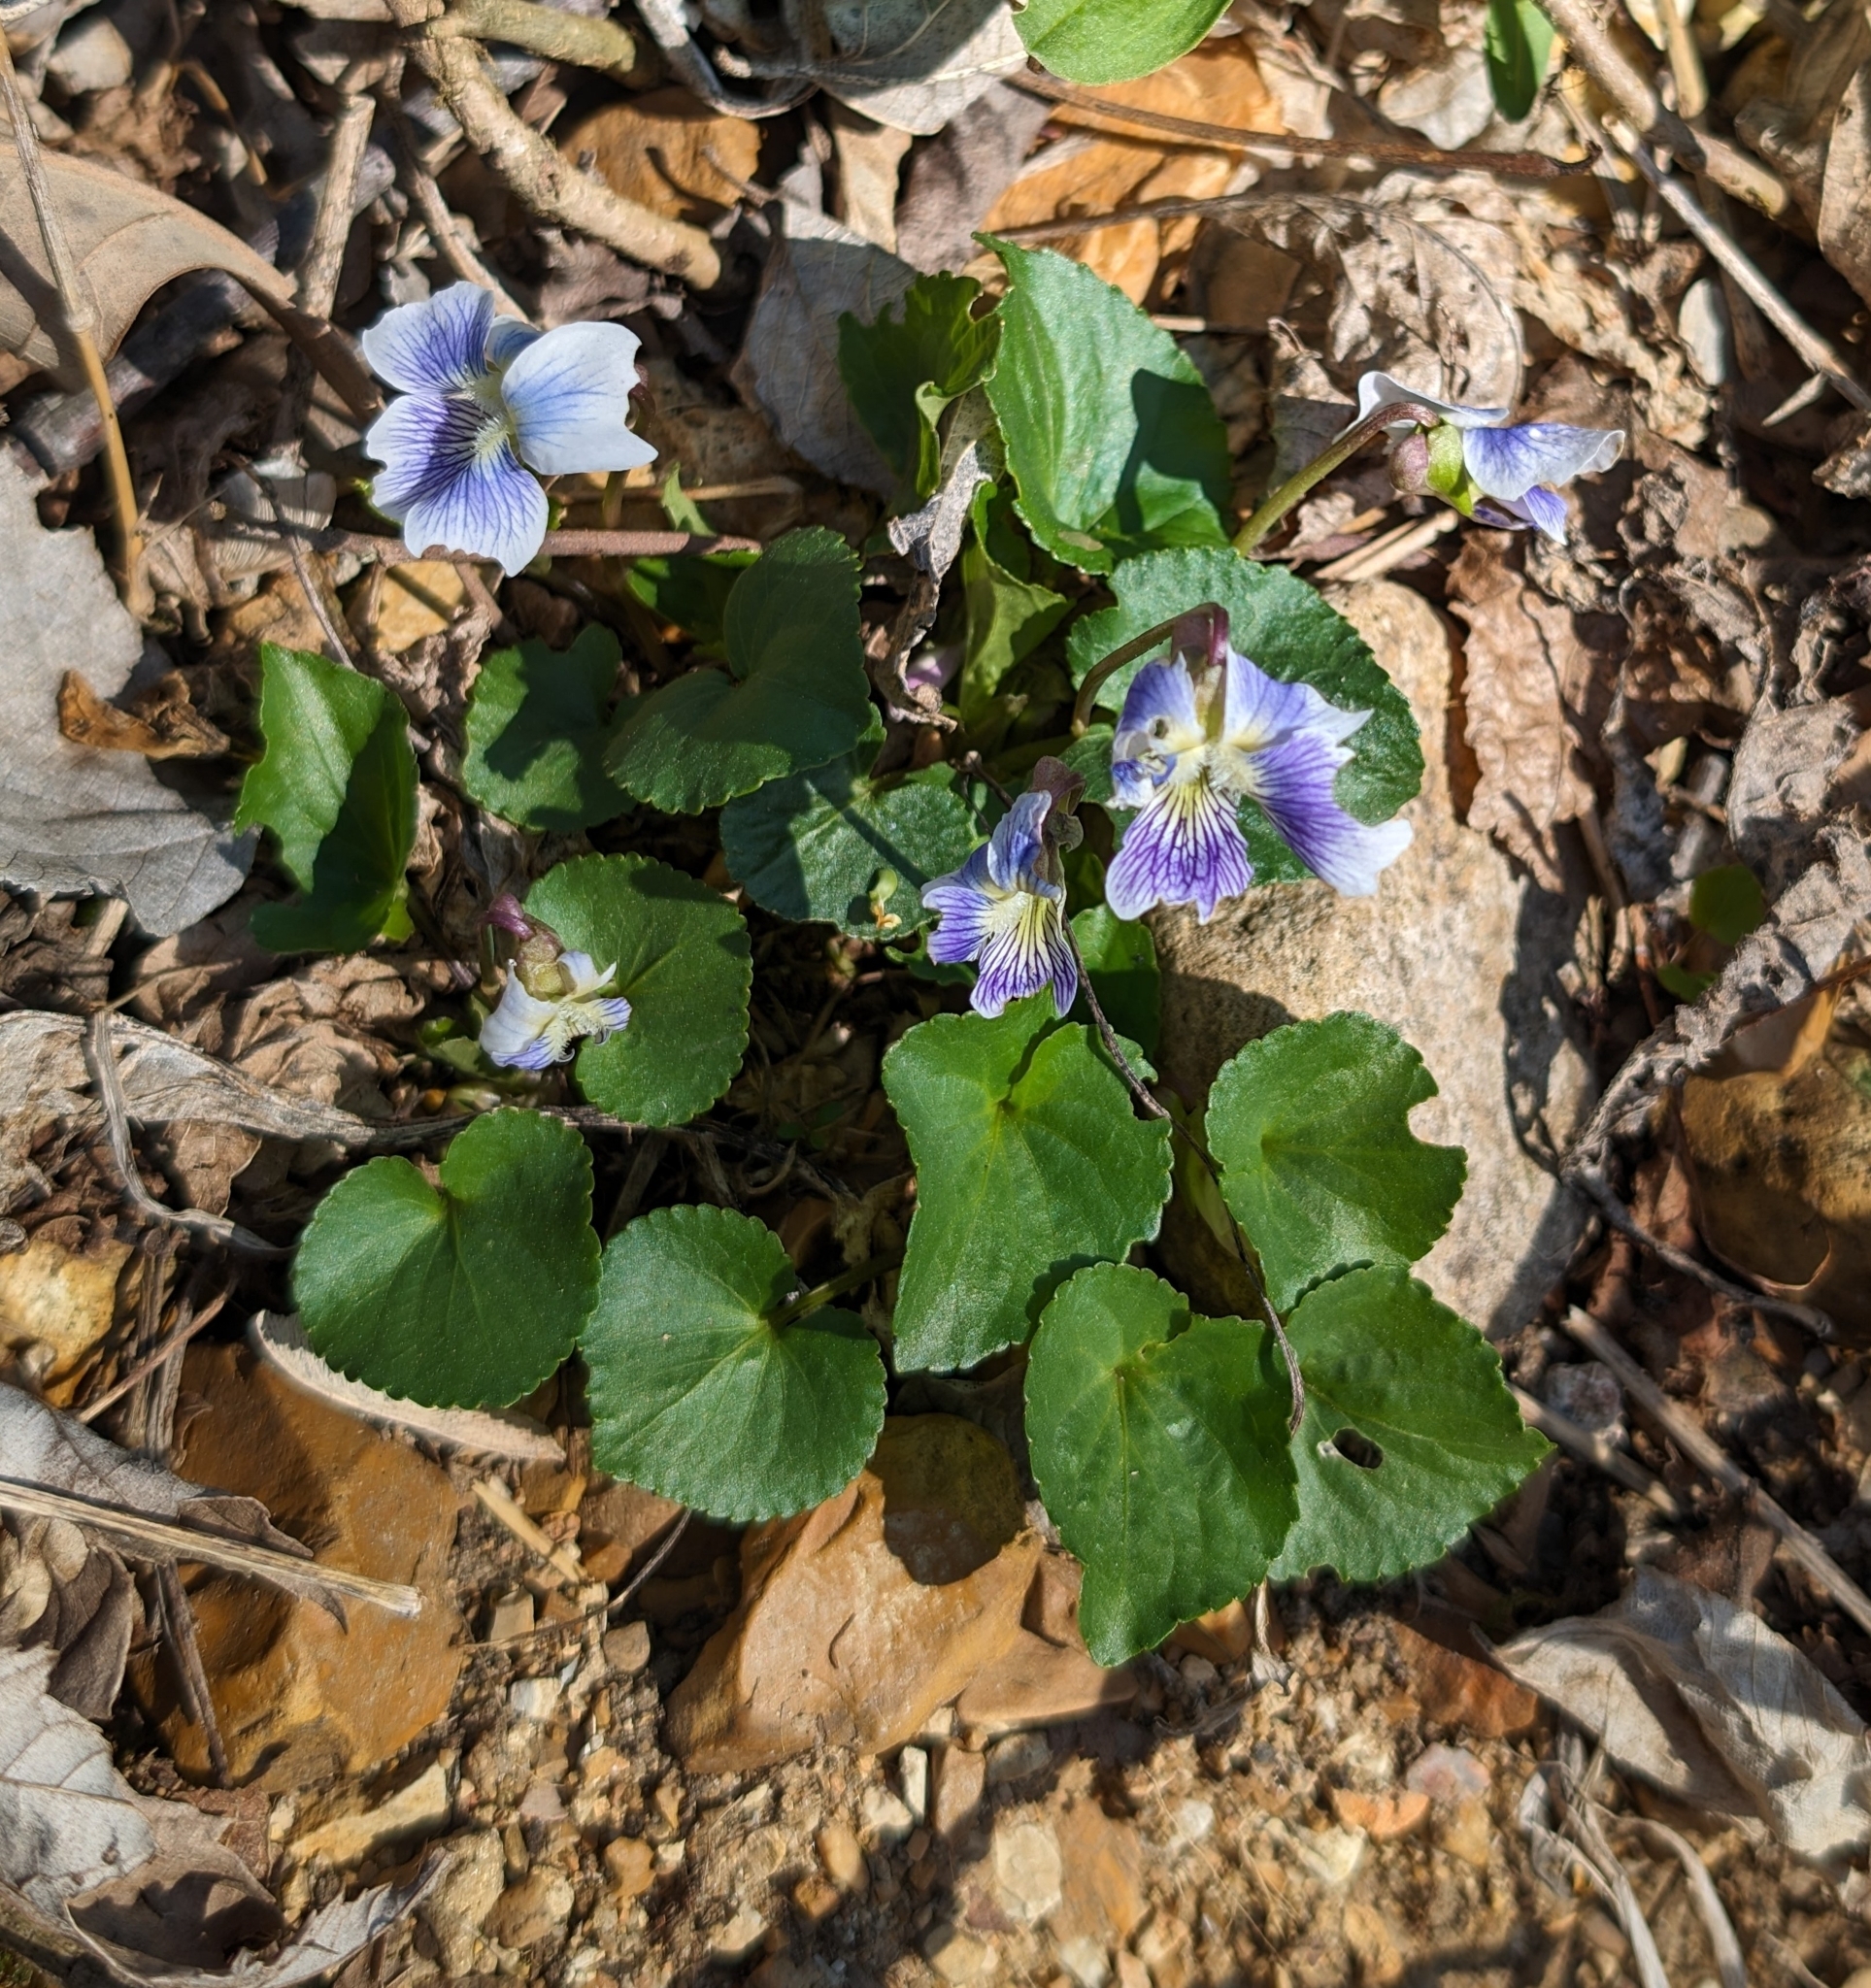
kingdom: Plantae
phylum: Tracheophyta
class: Magnoliopsida
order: Malpighiales
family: Violaceae
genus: Viola
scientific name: Viola sororia
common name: Dooryard violet
